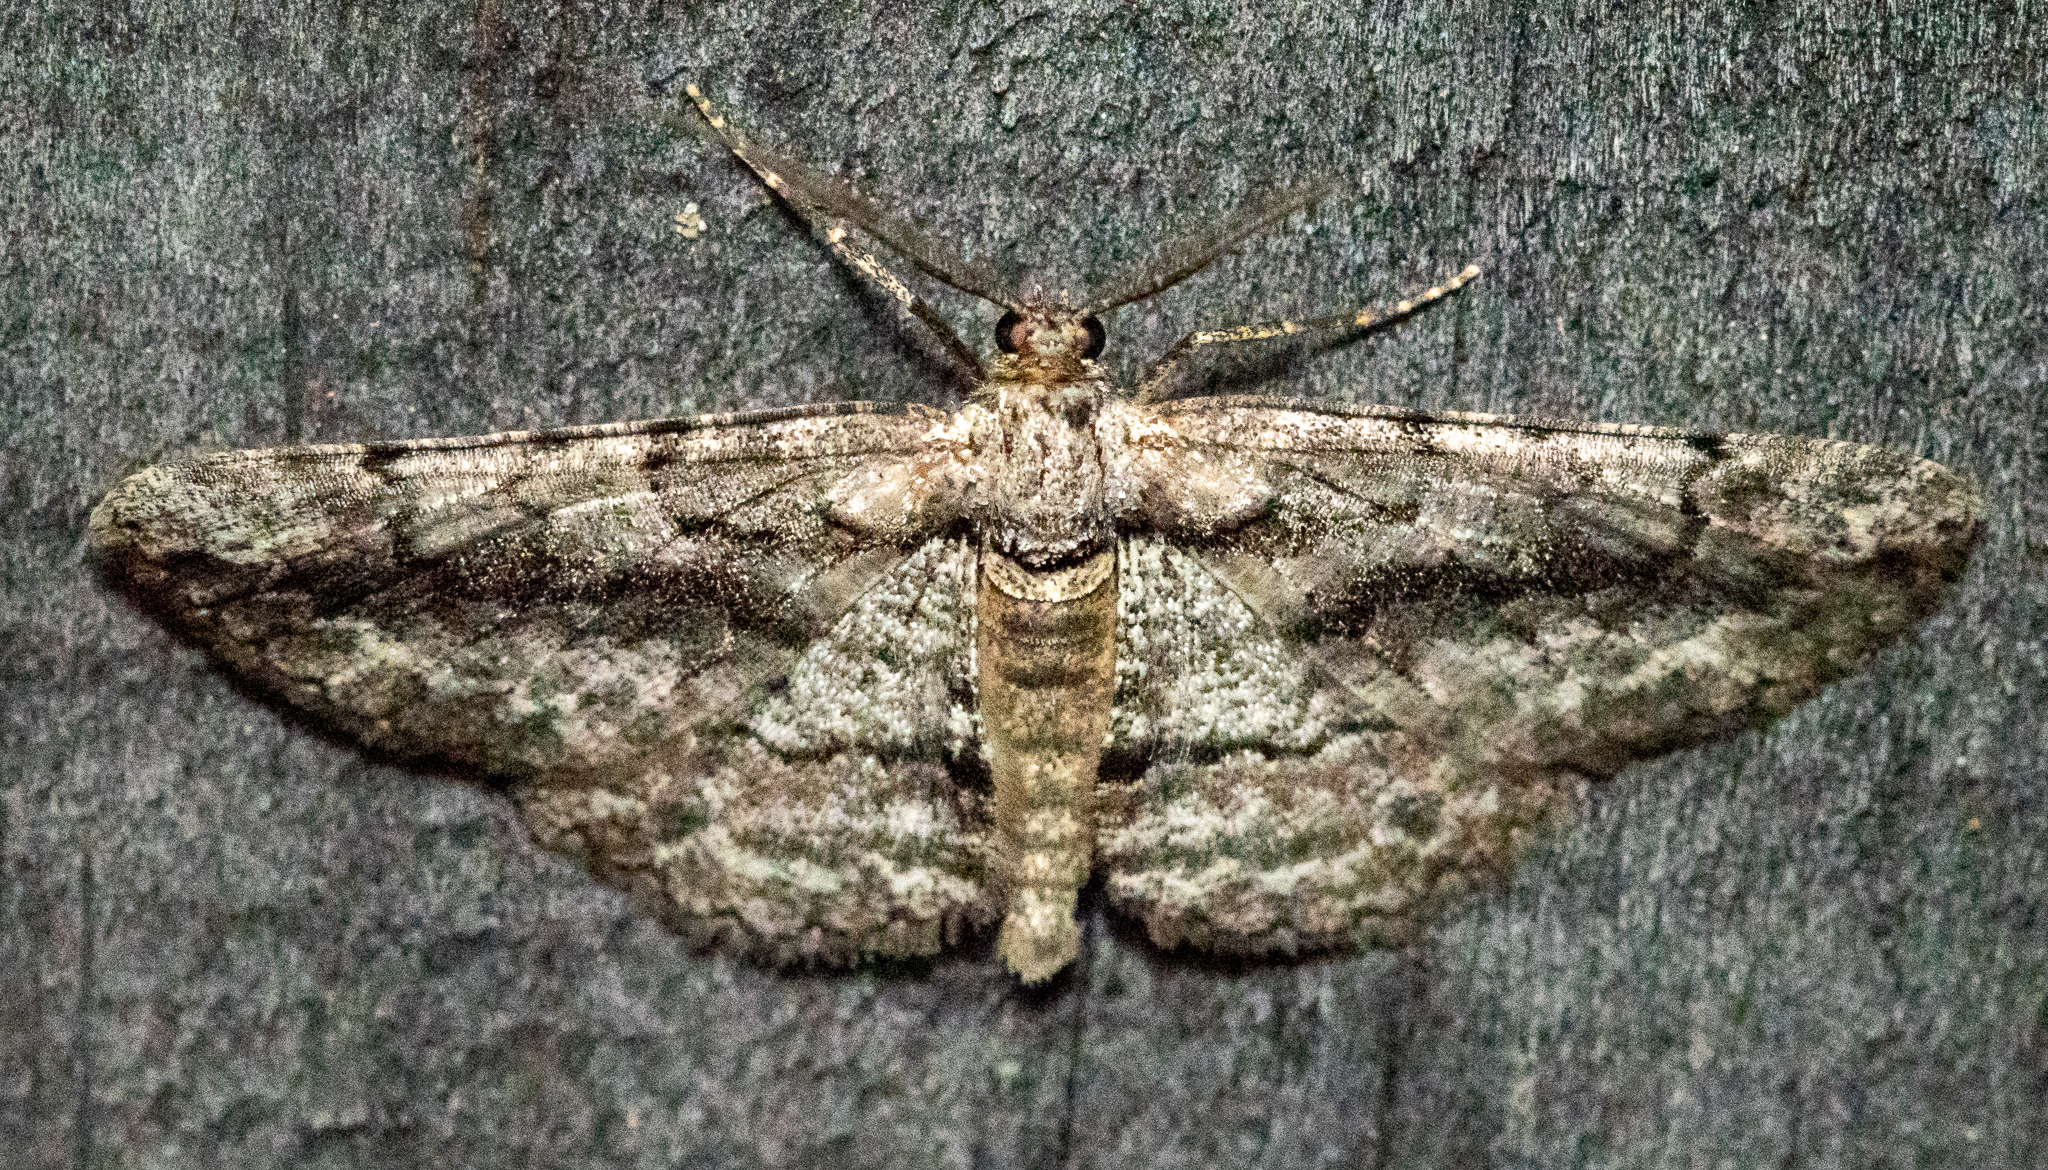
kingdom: Animalia
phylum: Arthropoda
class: Insecta
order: Lepidoptera
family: Geometridae
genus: Anavitrinella
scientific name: Anavitrinella pampinaria
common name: Common gray
